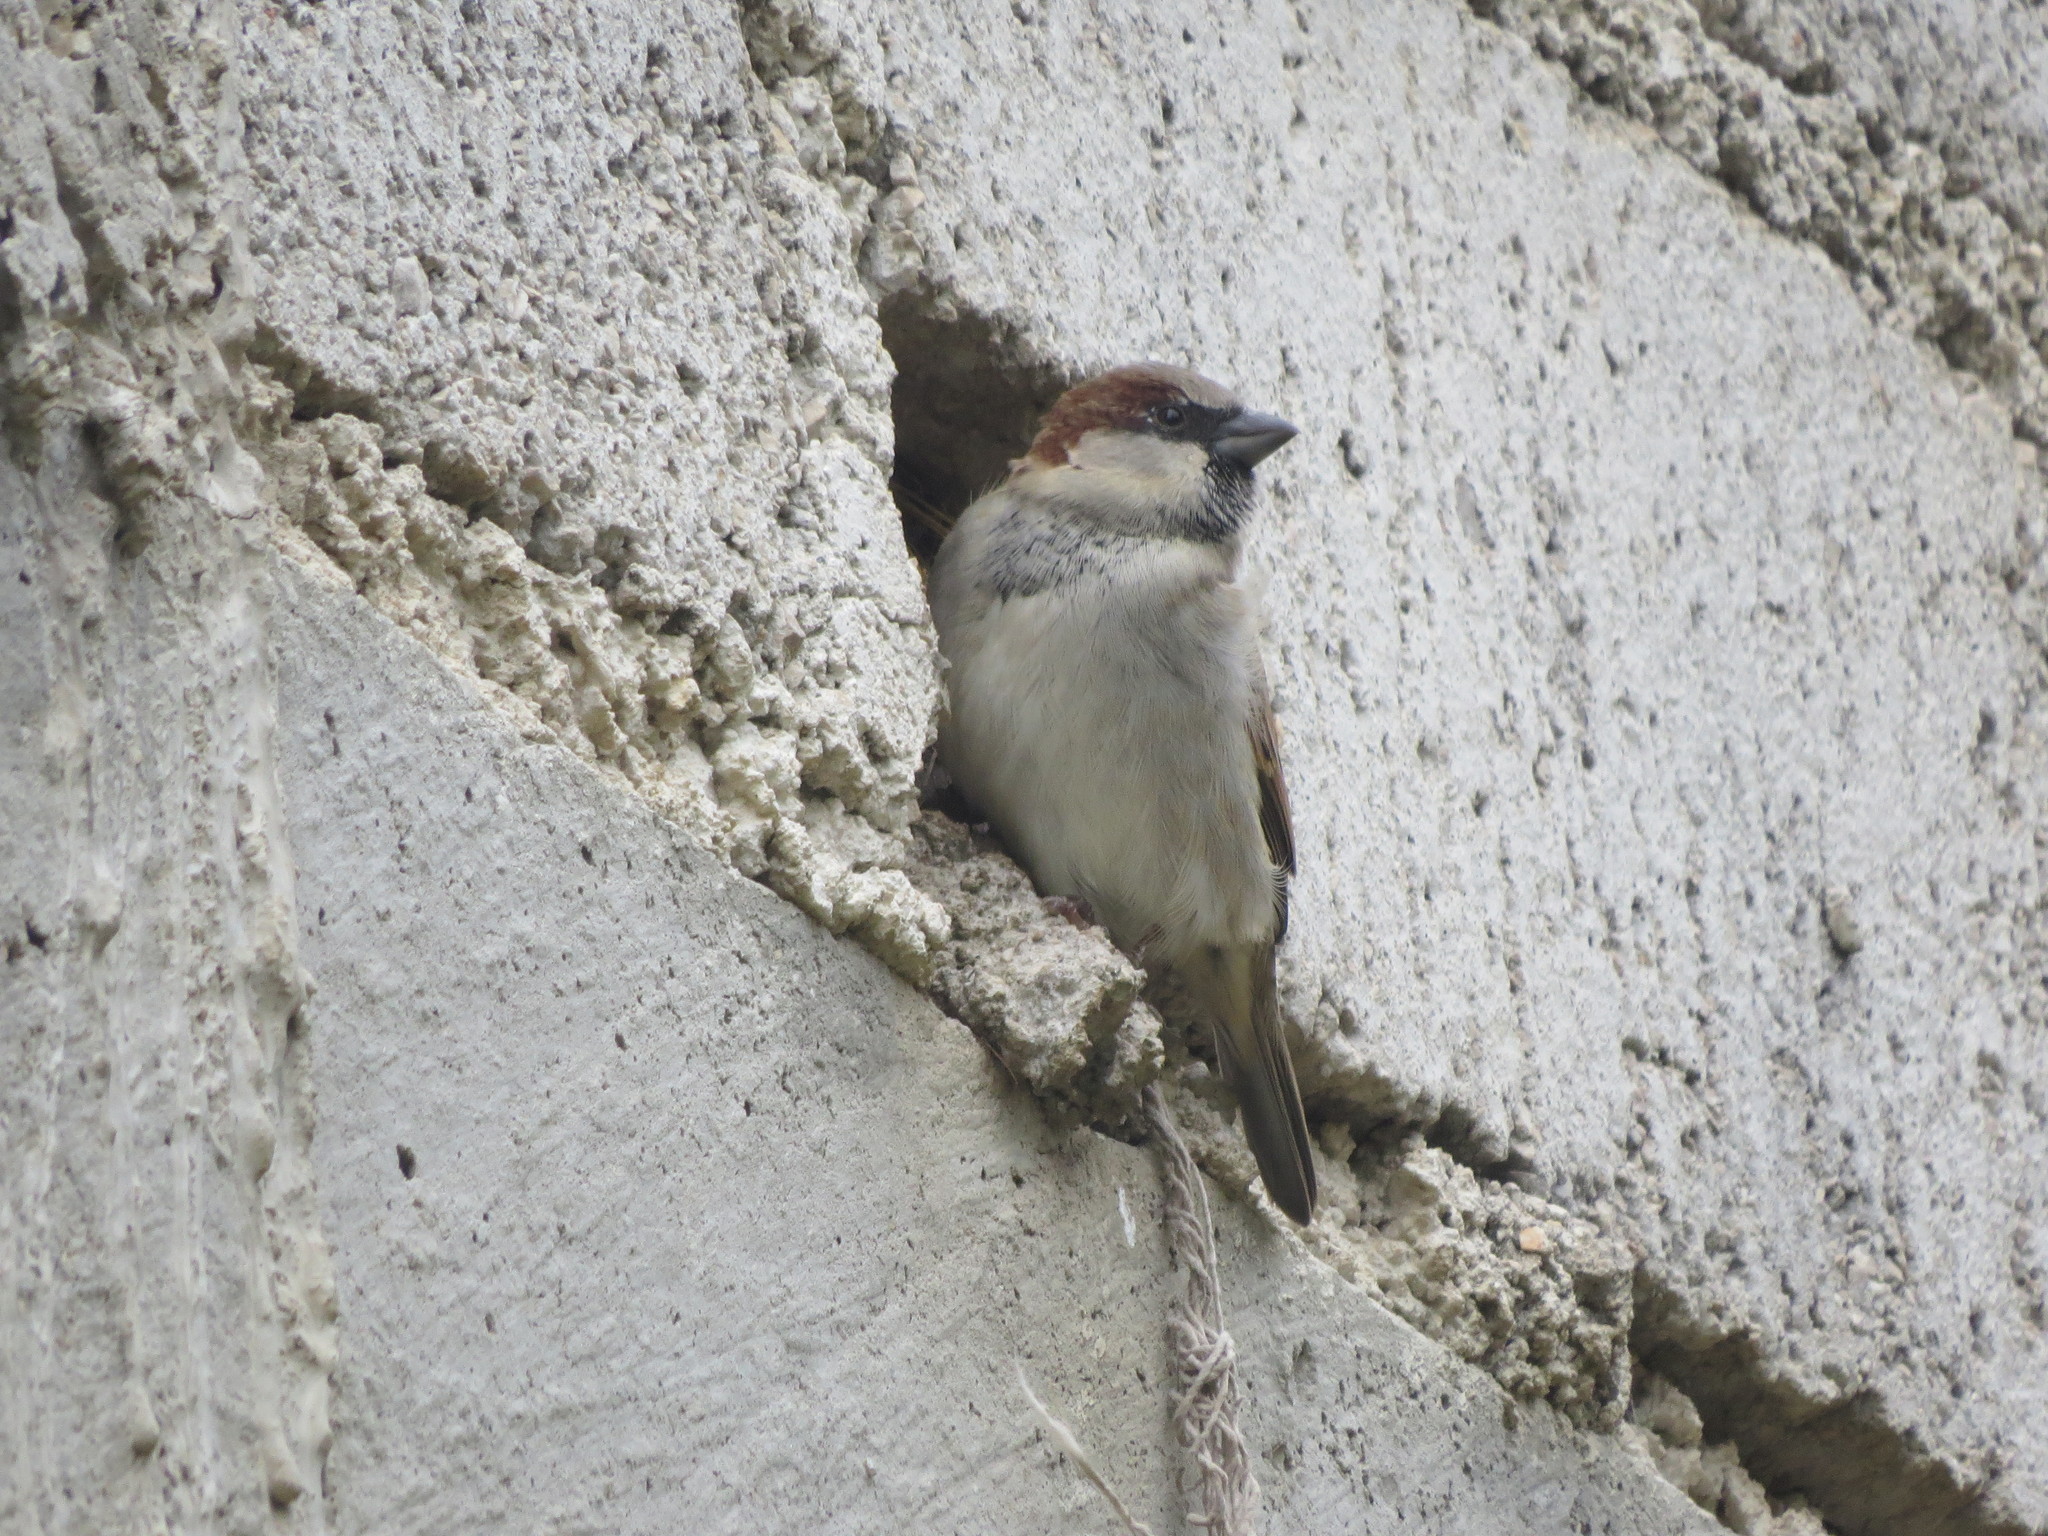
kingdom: Animalia
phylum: Chordata
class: Aves
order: Passeriformes
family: Passeridae
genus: Passer
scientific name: Passer domesticus
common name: House sparrow
